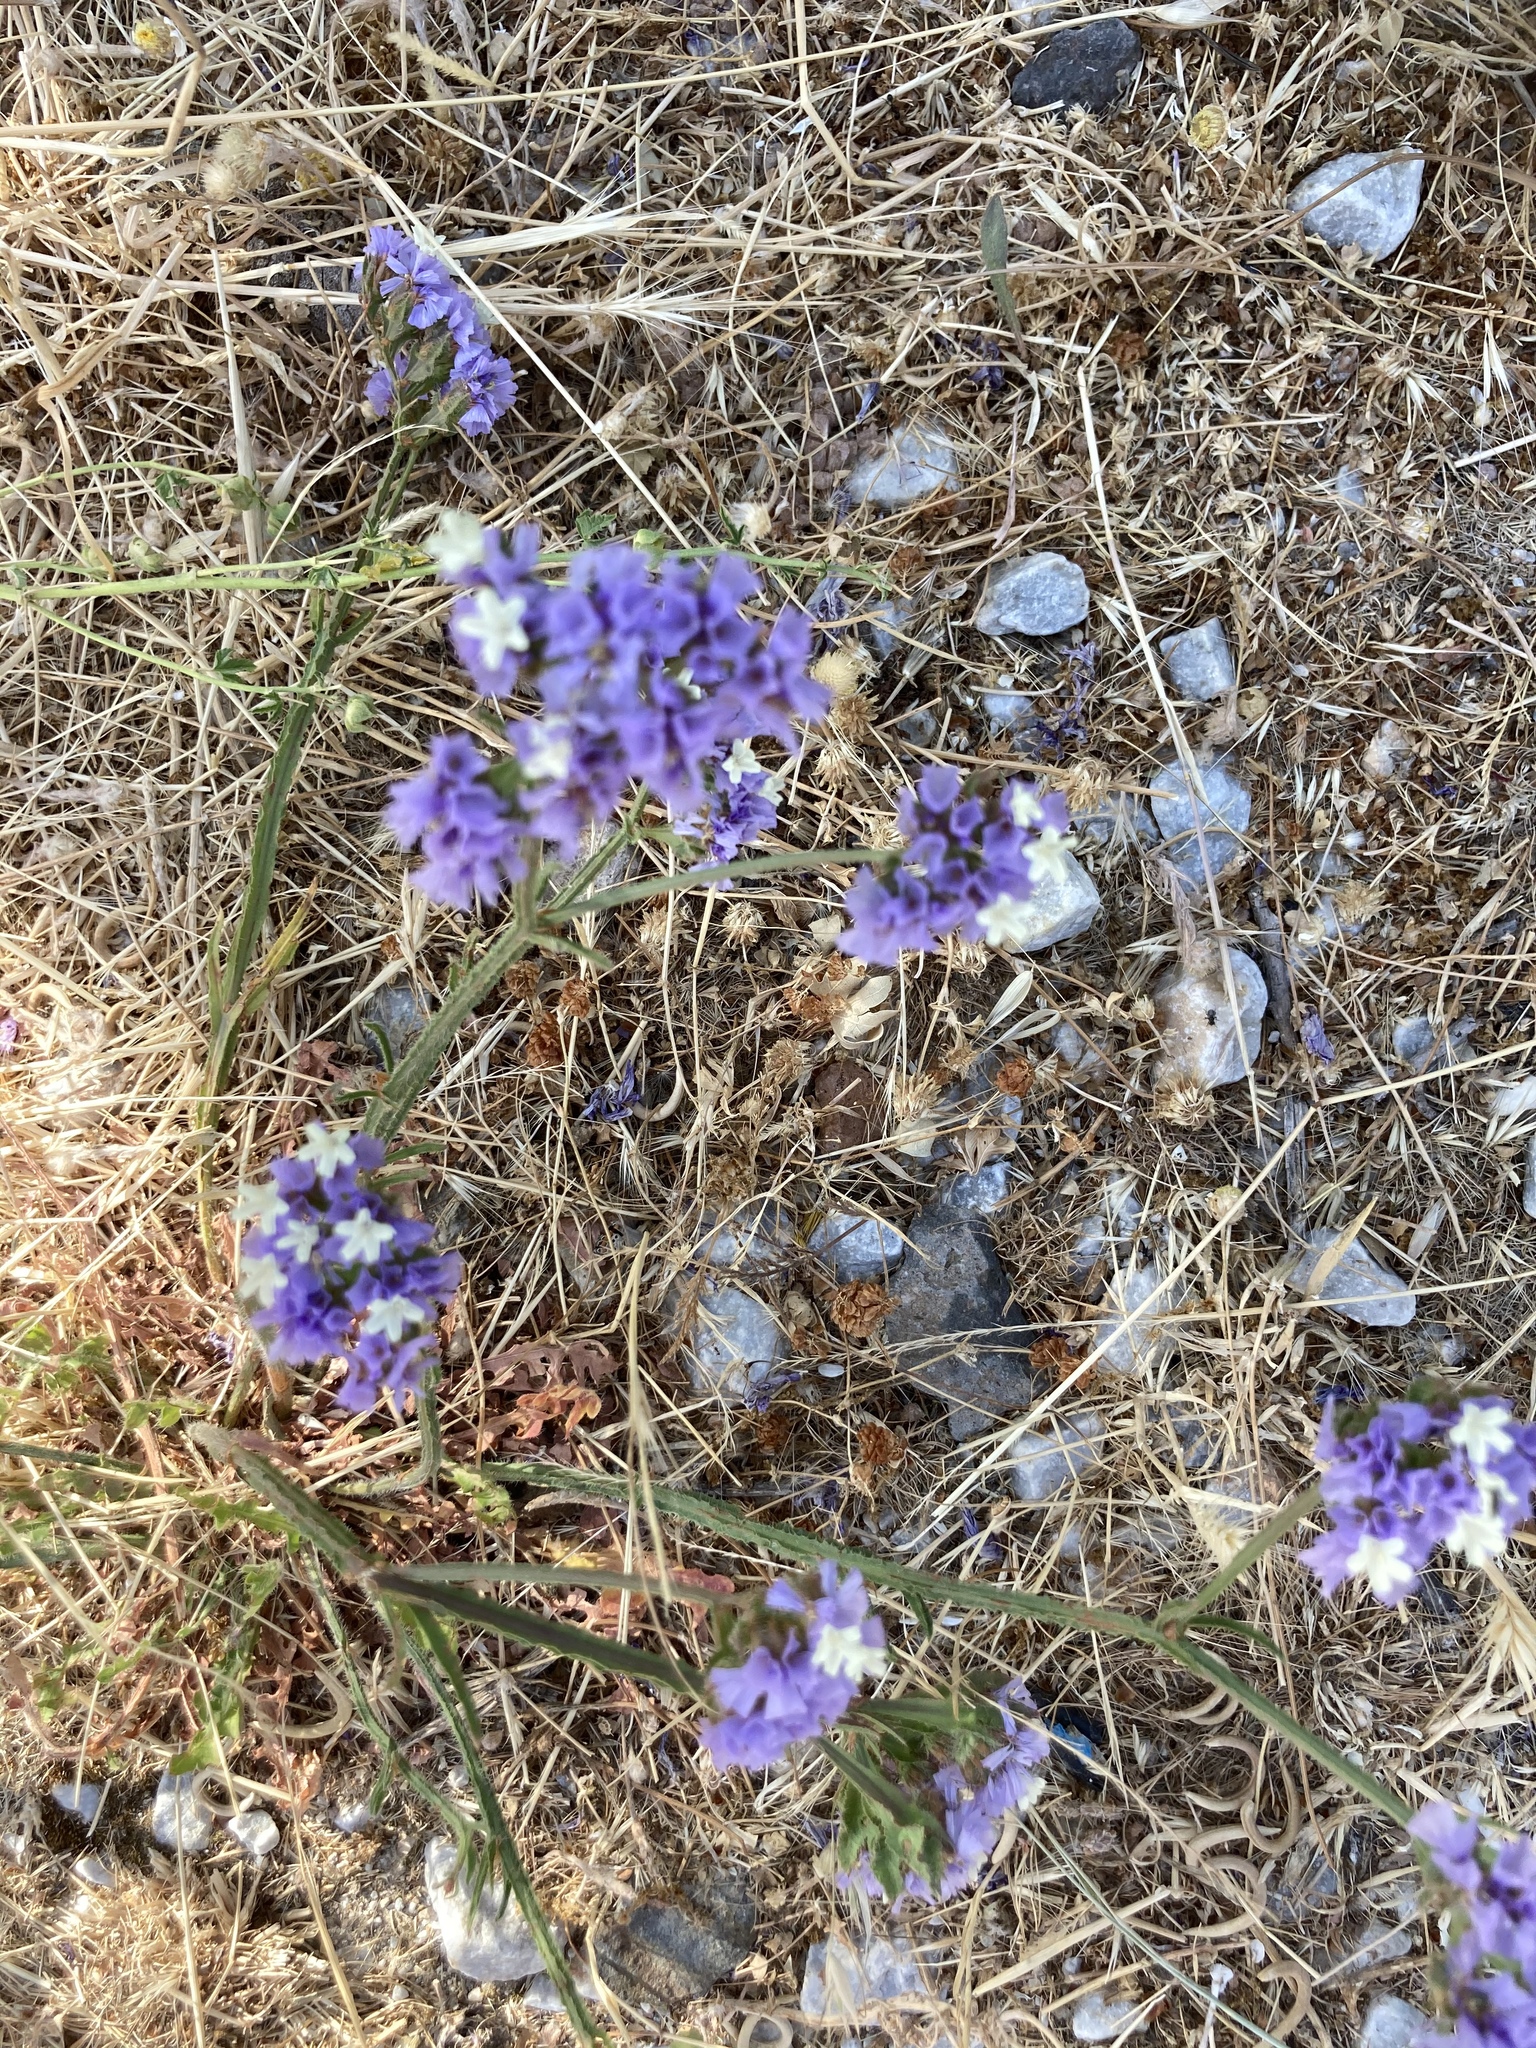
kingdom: Plantae
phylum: Tracheophyta
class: Magnoliopsida
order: Caryophyllales
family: Plumbaginaceae
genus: Limonium
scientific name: Limonium sinuatum
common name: Statice
